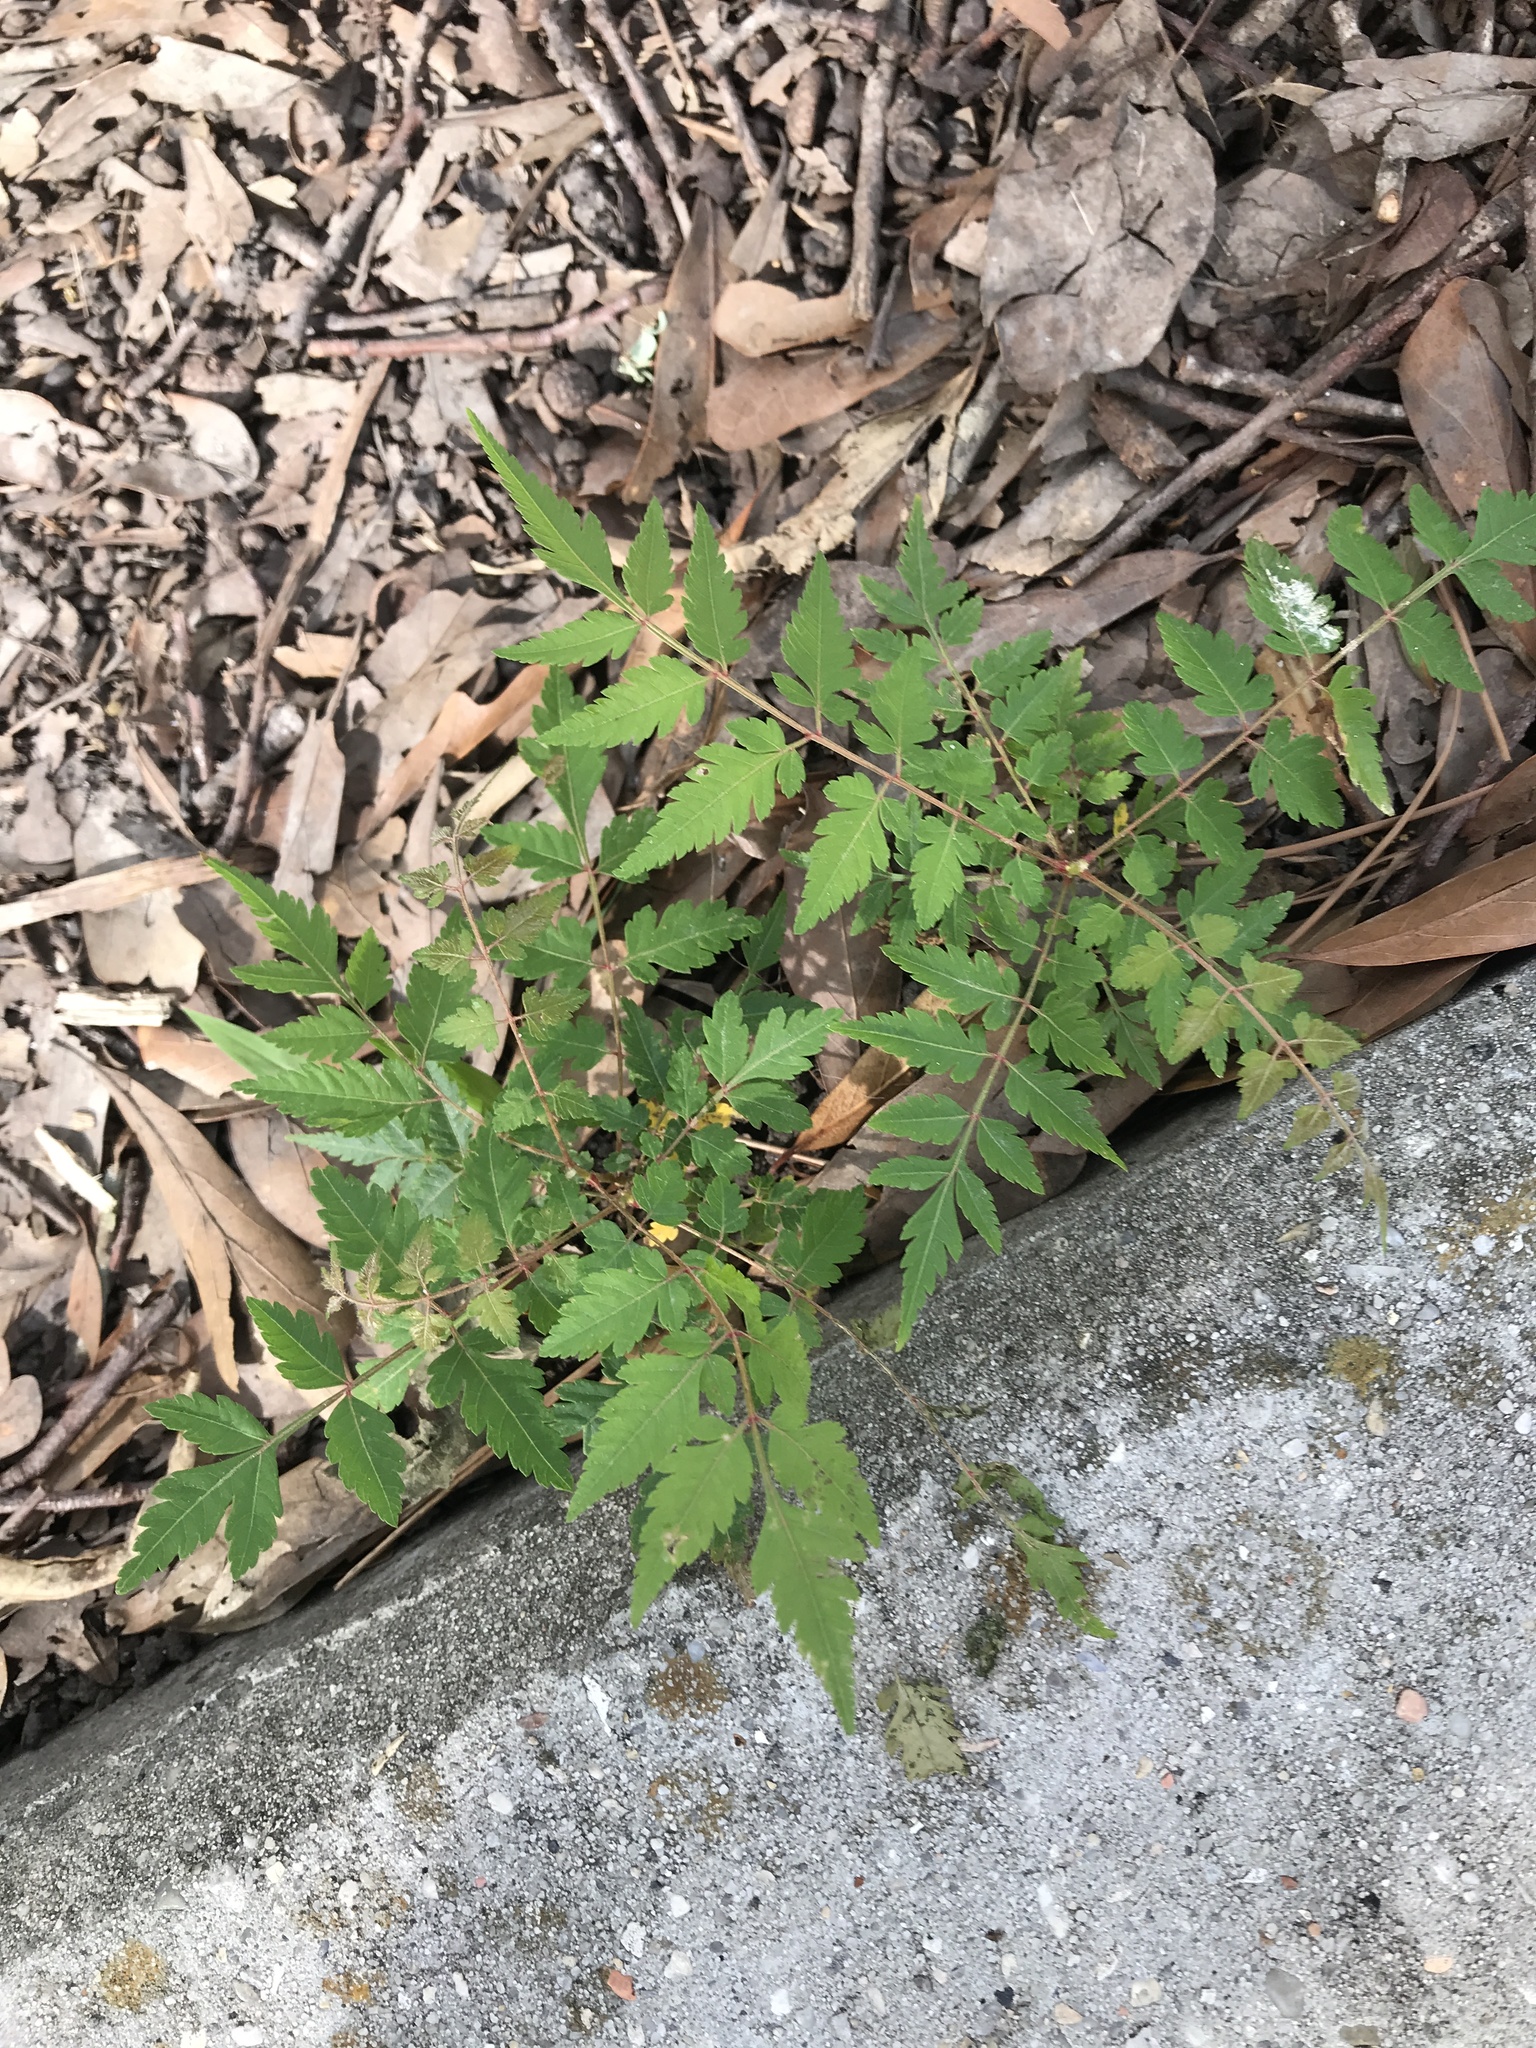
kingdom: Plantae
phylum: Tracheophyta
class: Magnoliopsida
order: Sapindales
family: Sapindaceae
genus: Koelreuteria
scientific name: Koelreuteria elegans
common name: Chinese flame tree
